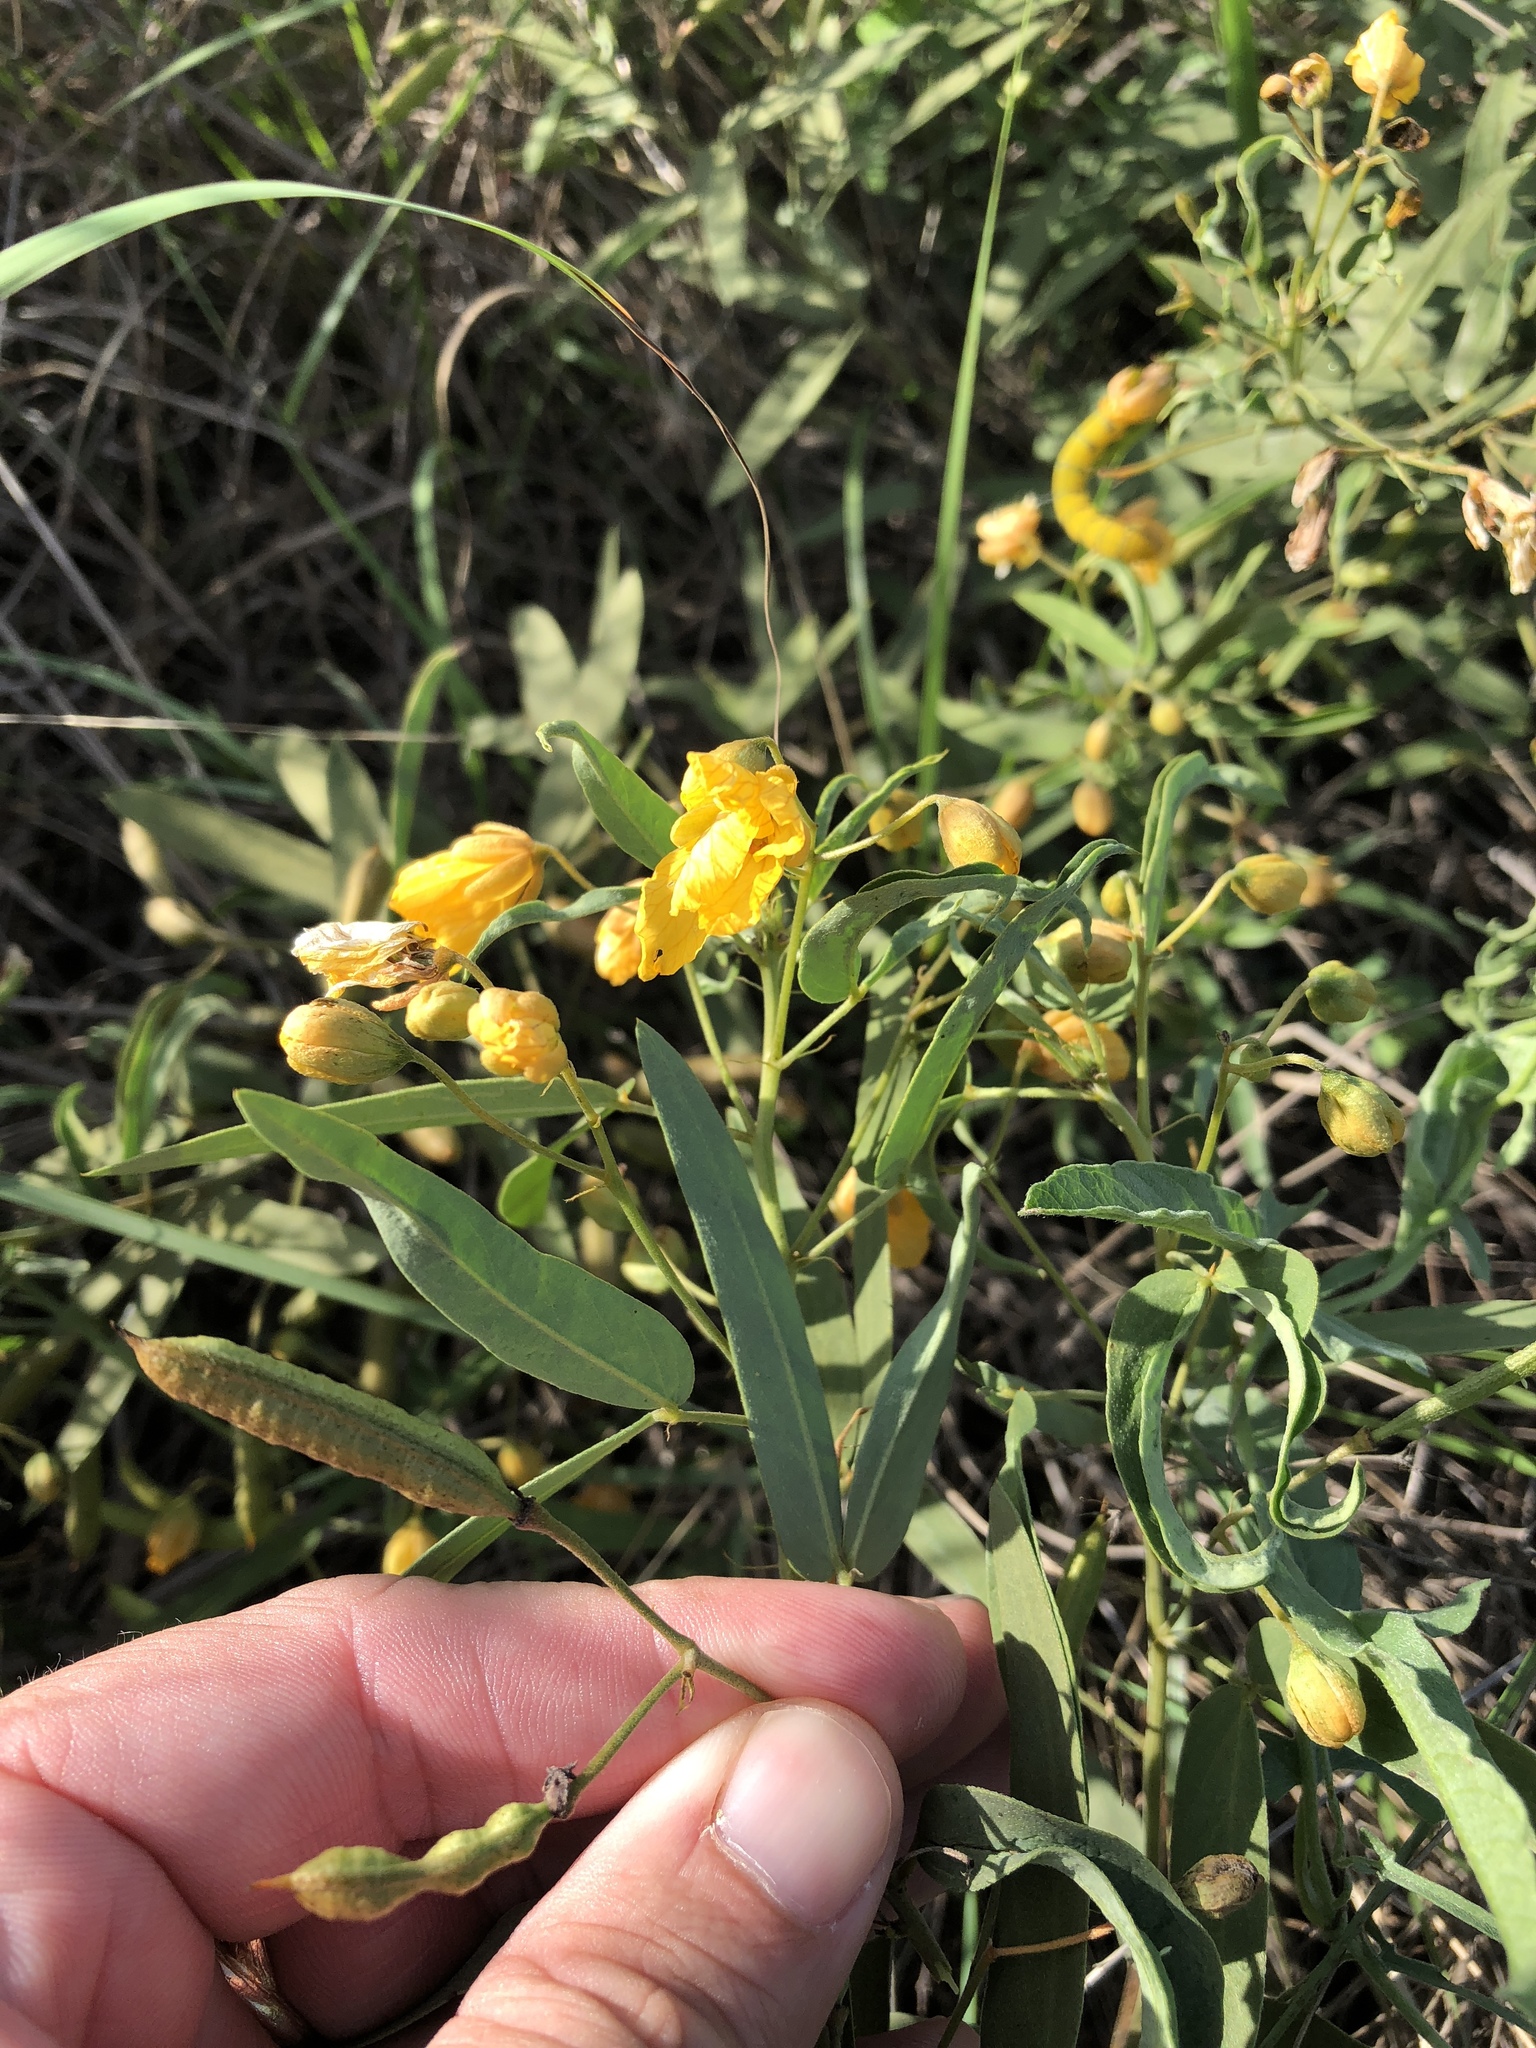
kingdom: Plantae
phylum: Tracheophyta
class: Magnoliopsida
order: Fabales
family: Fabaceae
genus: Senna
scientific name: Senna roemeriana
